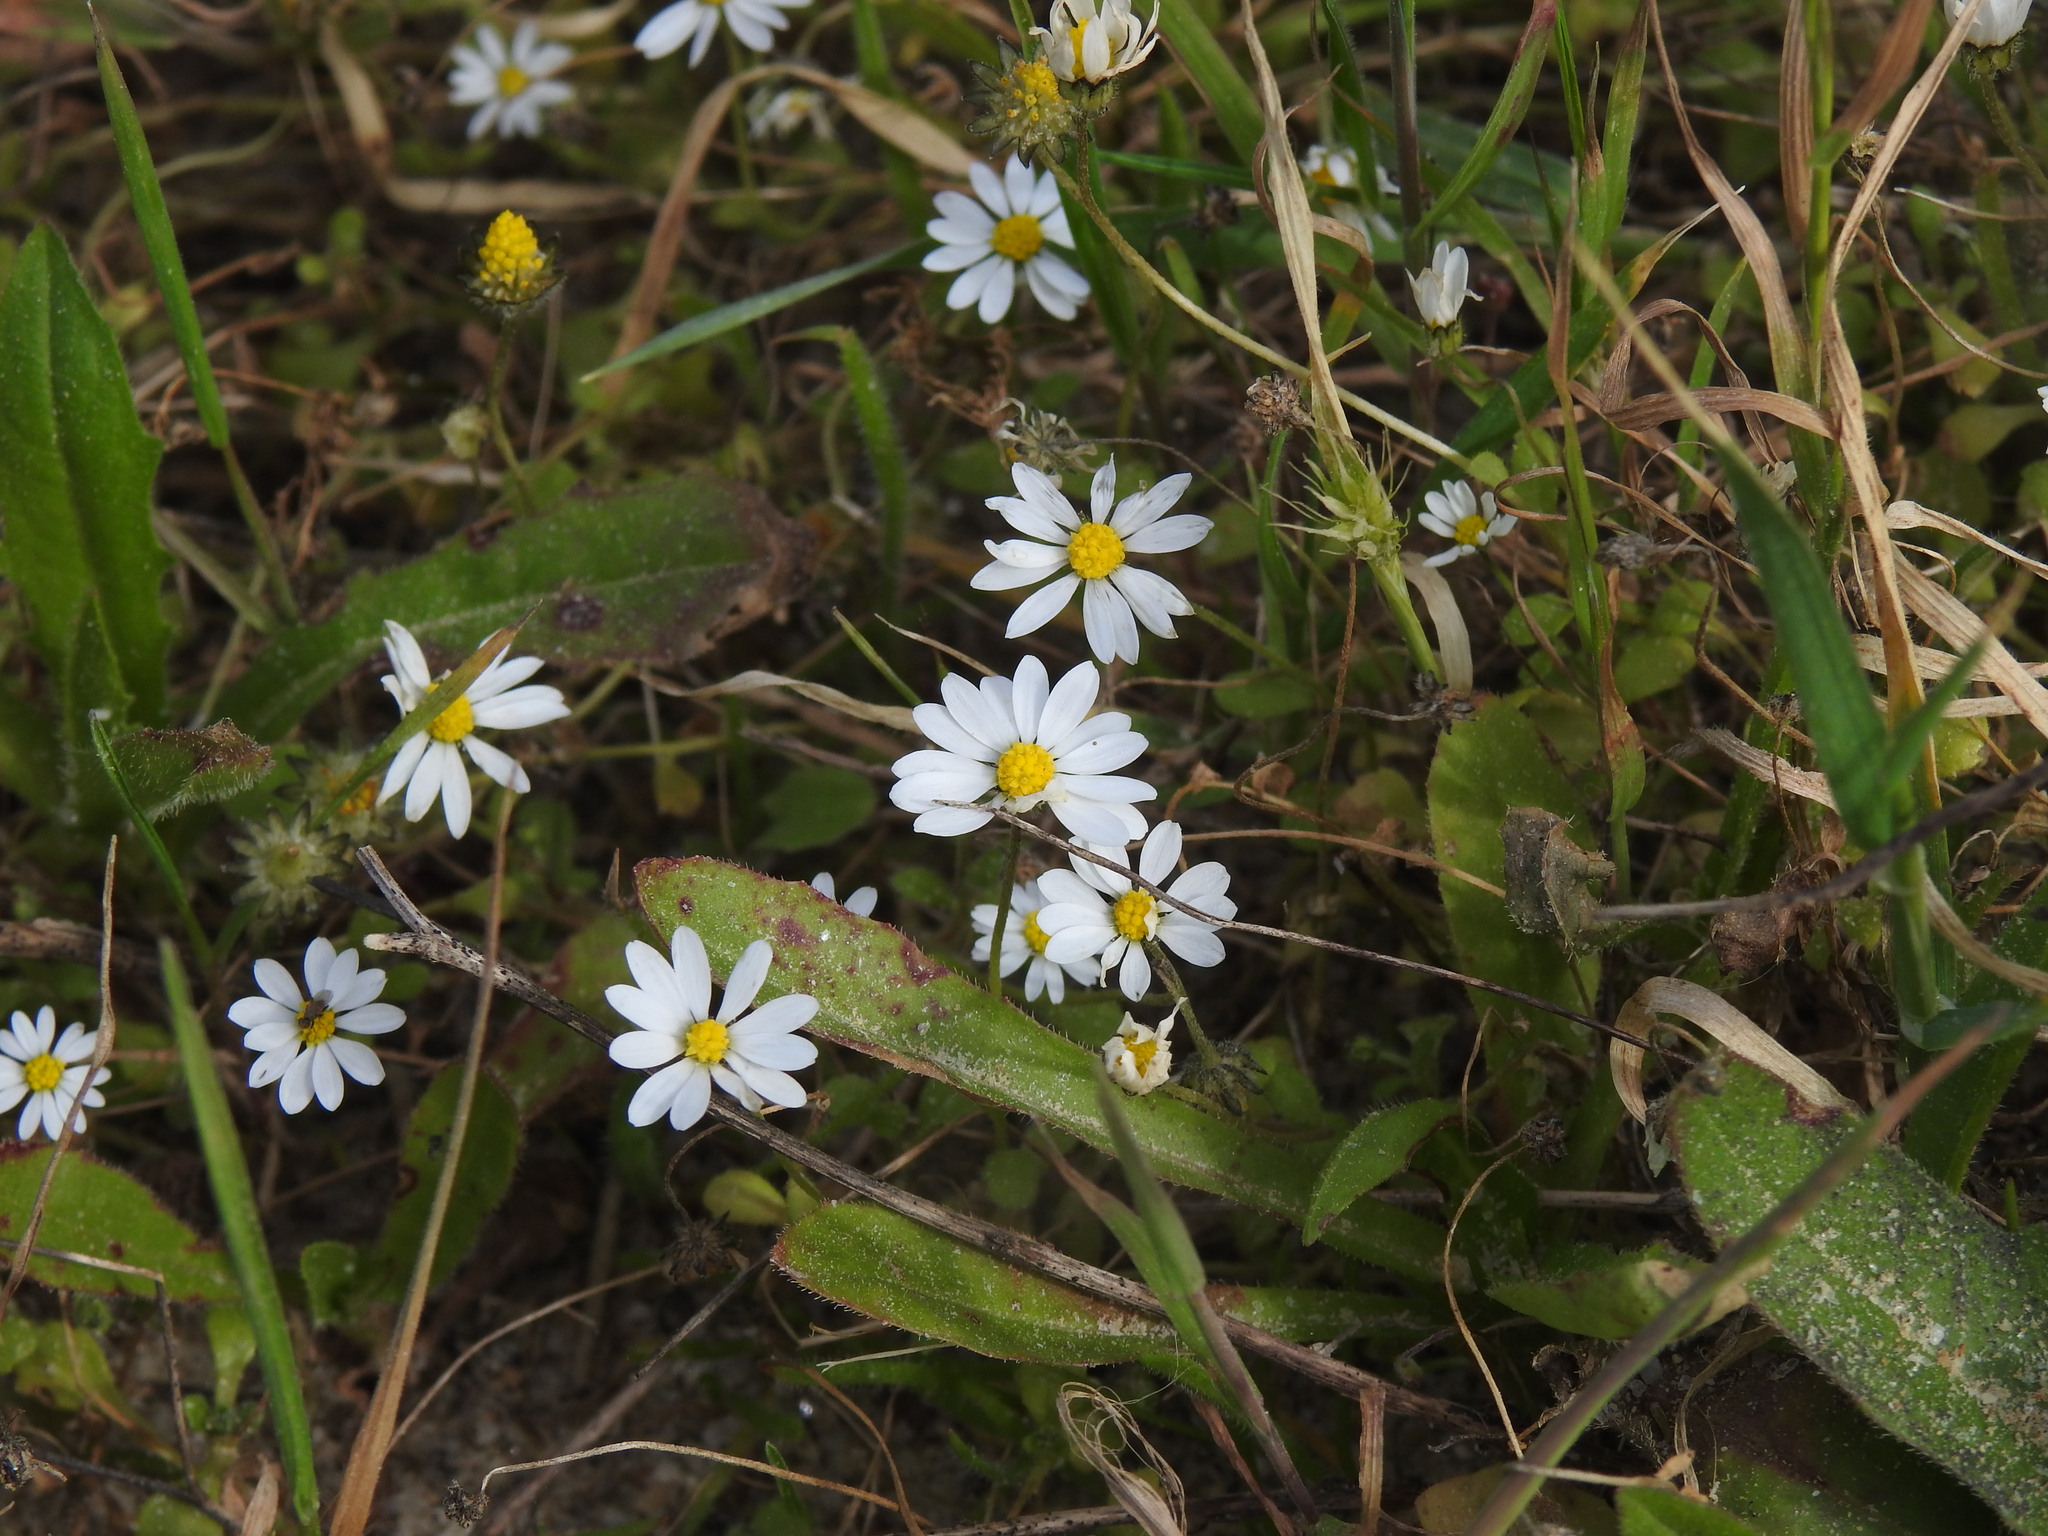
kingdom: Plantae
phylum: Tracheophyta
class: Magnoliopsida
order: Asterales
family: Asteraceae
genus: Bellis
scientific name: Bellis annua
